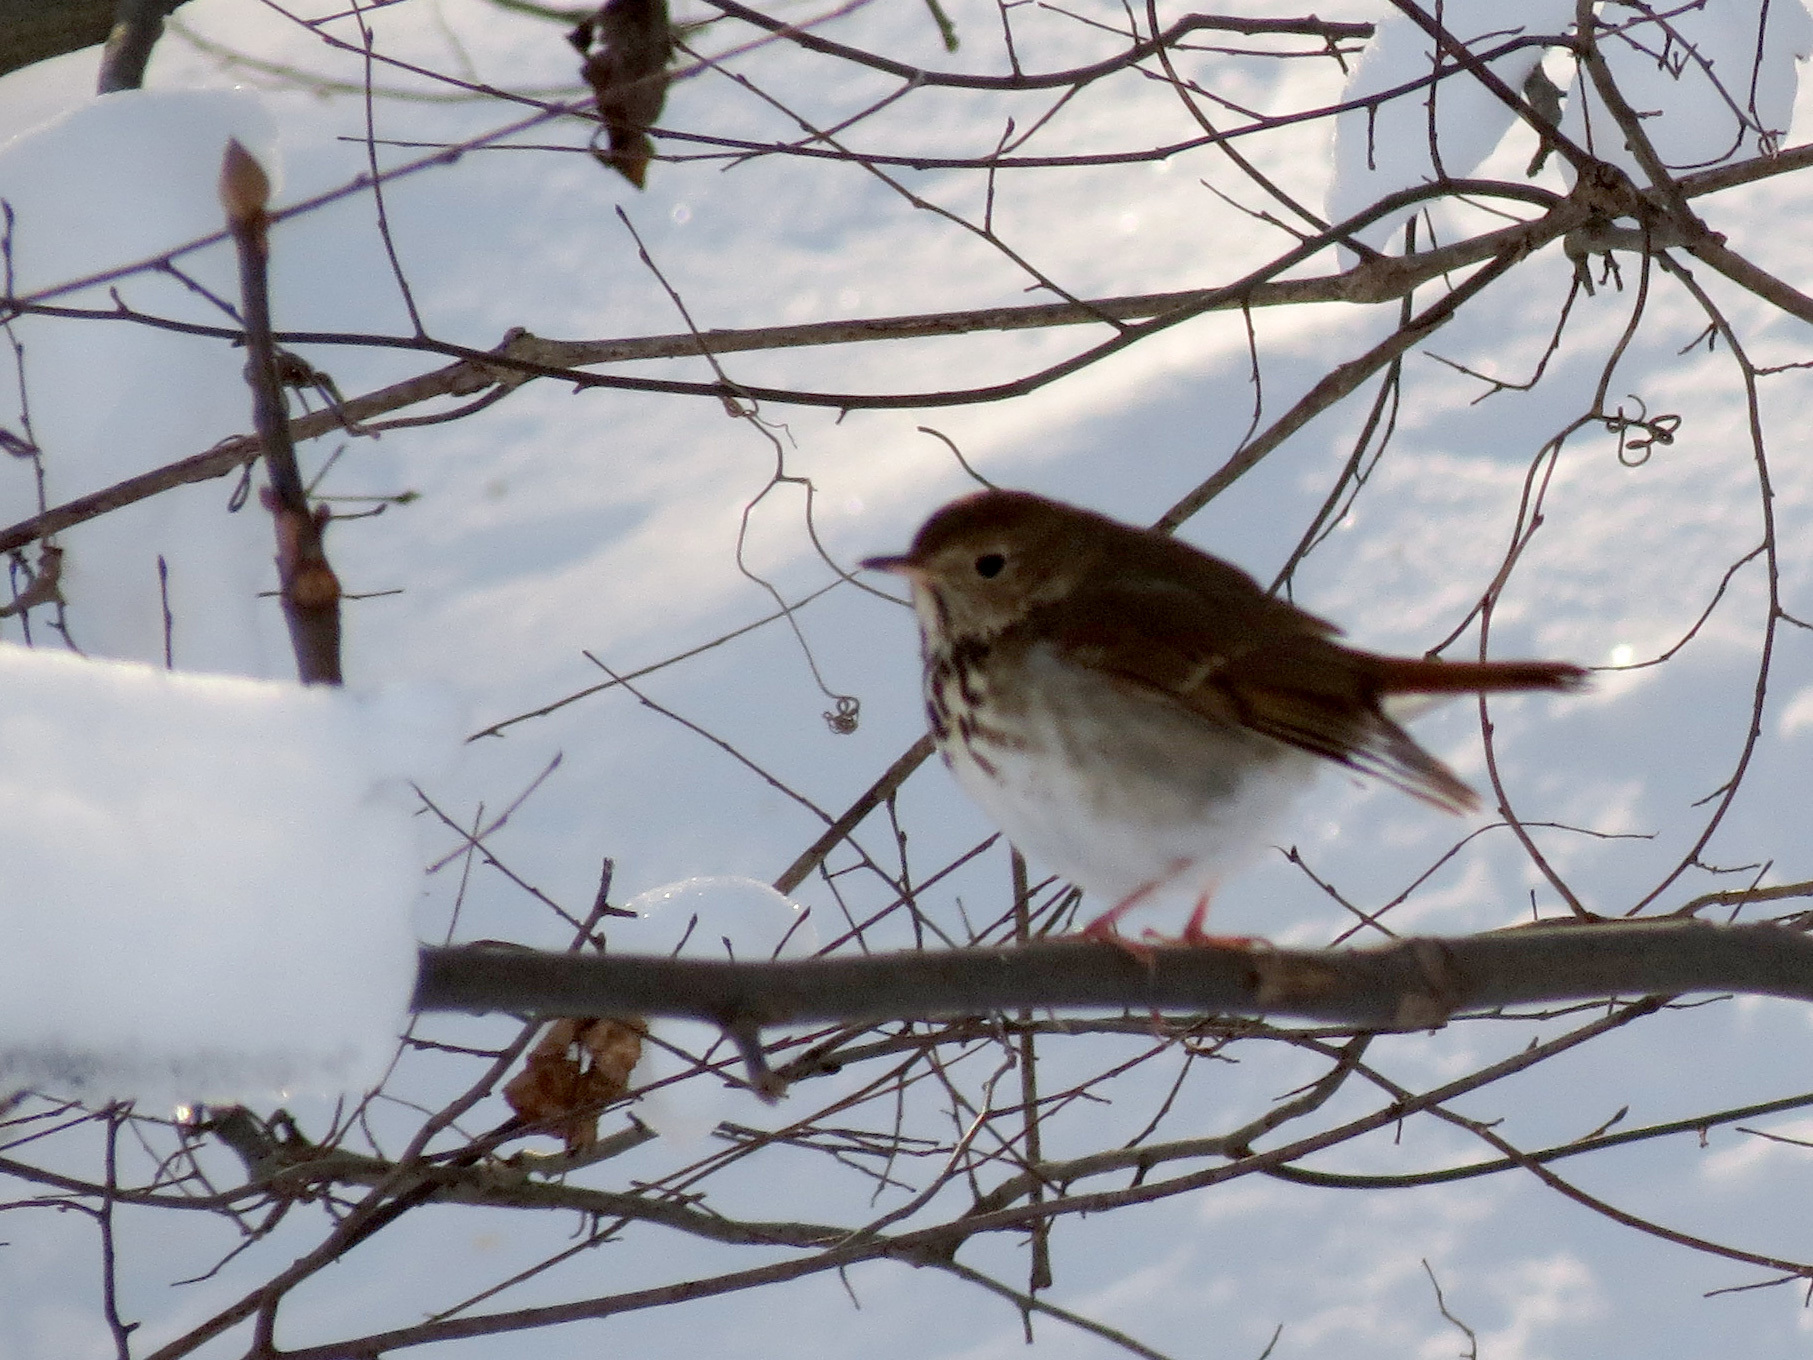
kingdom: Animalia
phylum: Chordata
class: Aves
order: Passeriformes
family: Turdidae
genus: Catharus
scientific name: Catharus guttatus
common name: Hermit thrush
